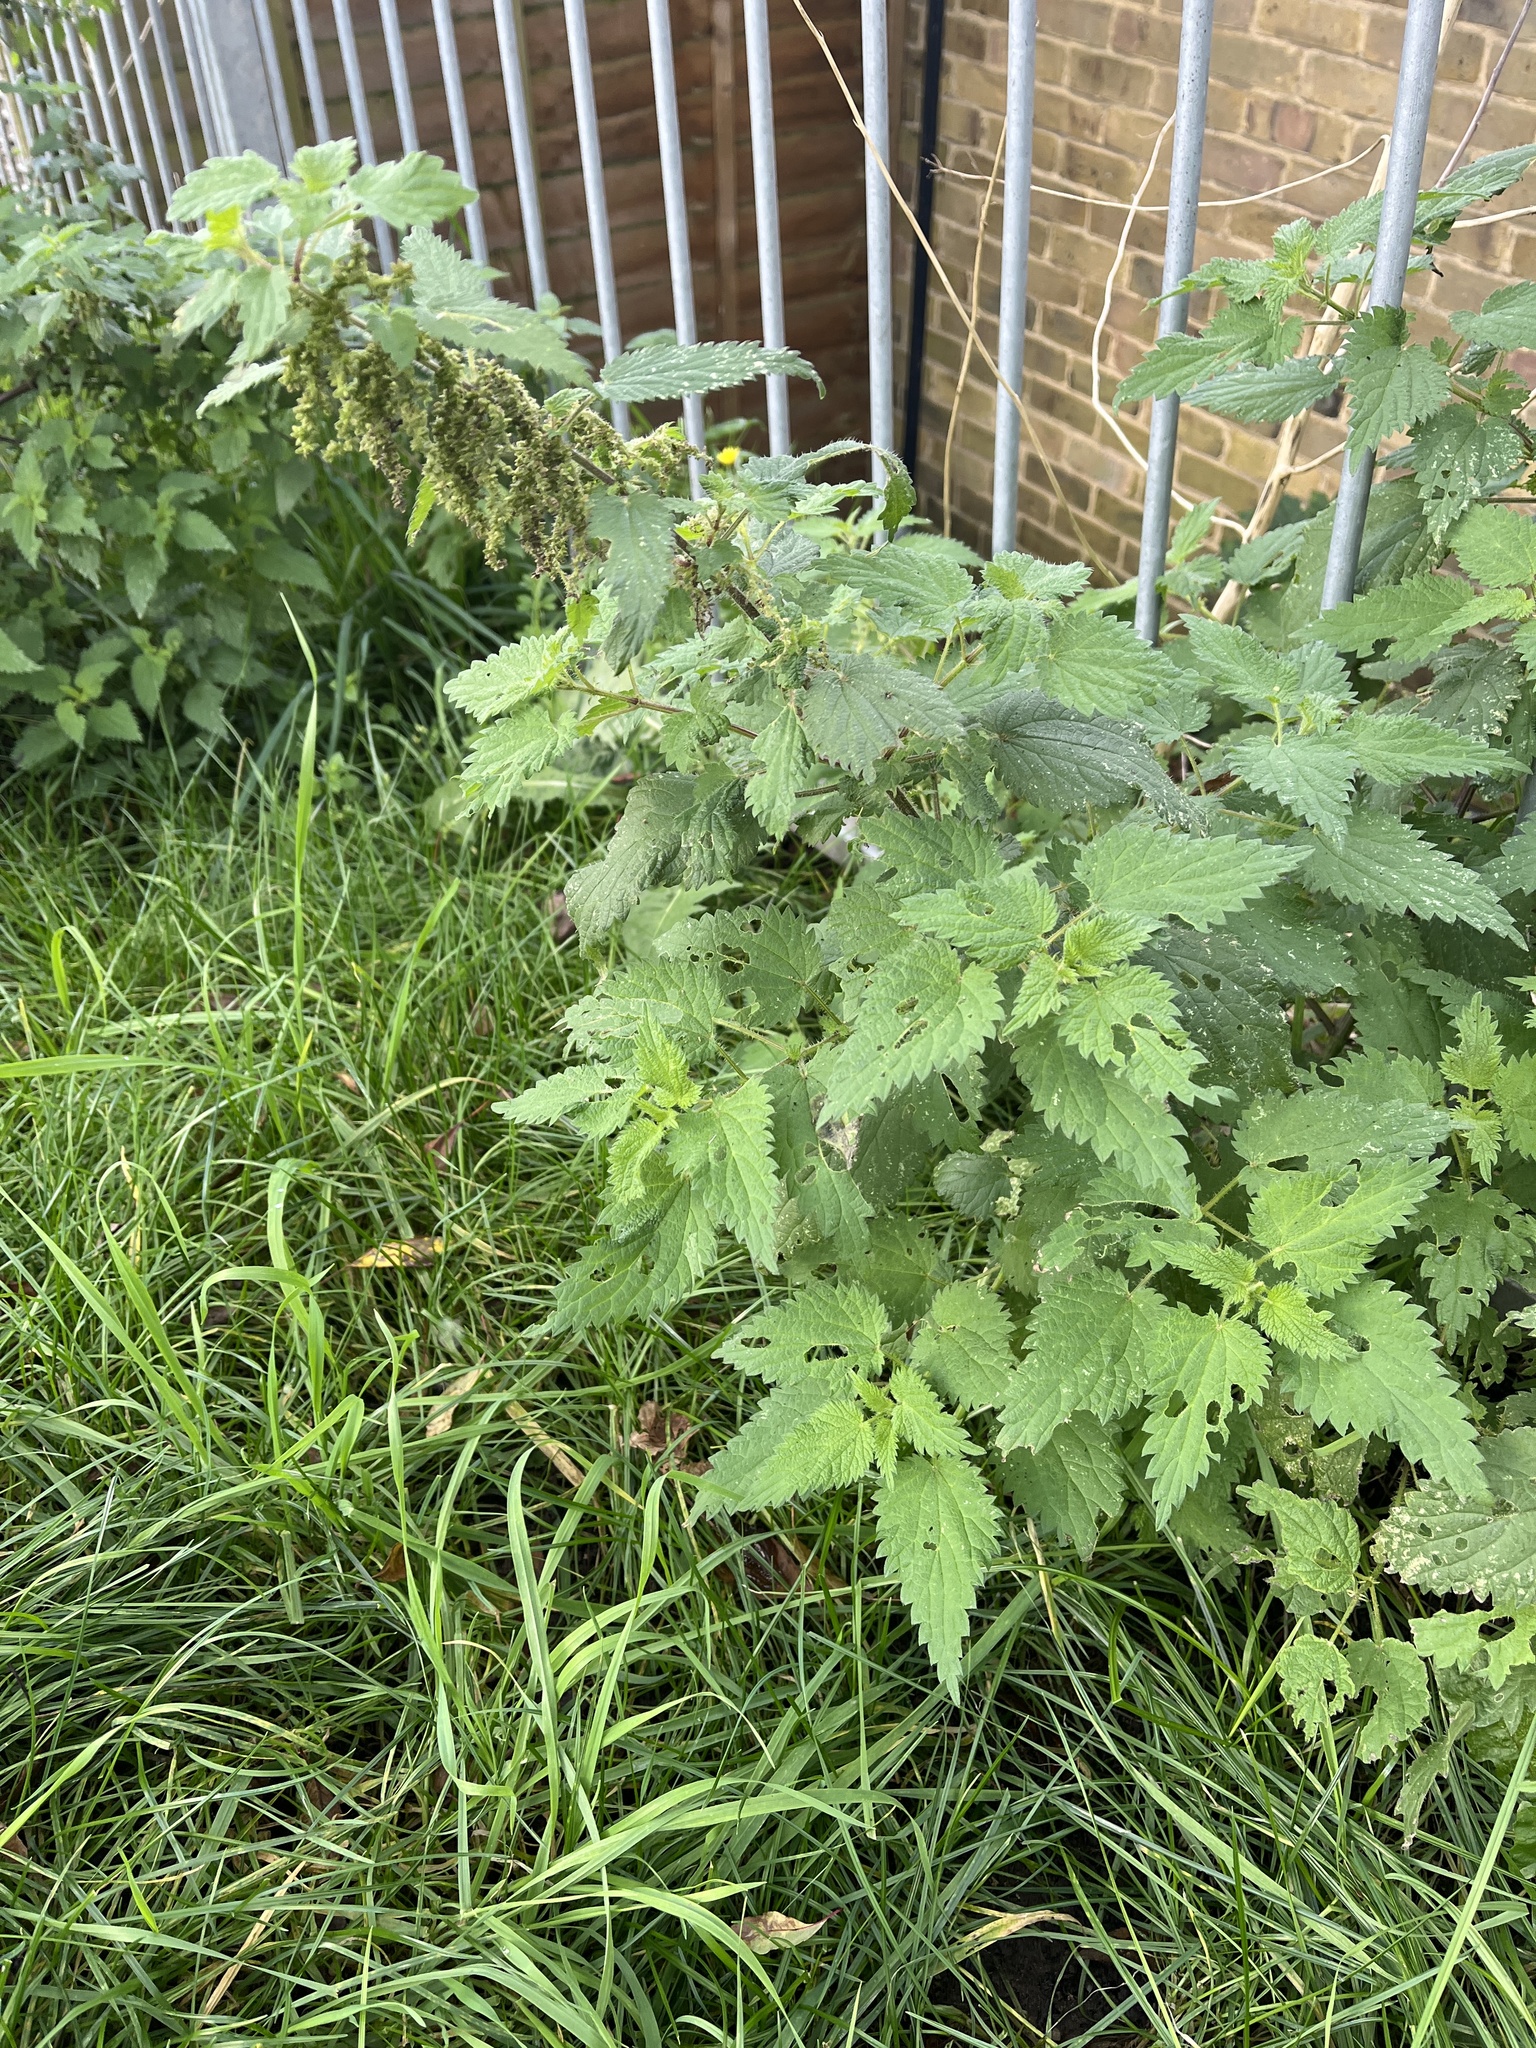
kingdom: Plantae
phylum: Tracheophyta
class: Magnoliopsida
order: Rosales
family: Urticaceae
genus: Urtica
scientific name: Urtica dioica
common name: Common nettle
